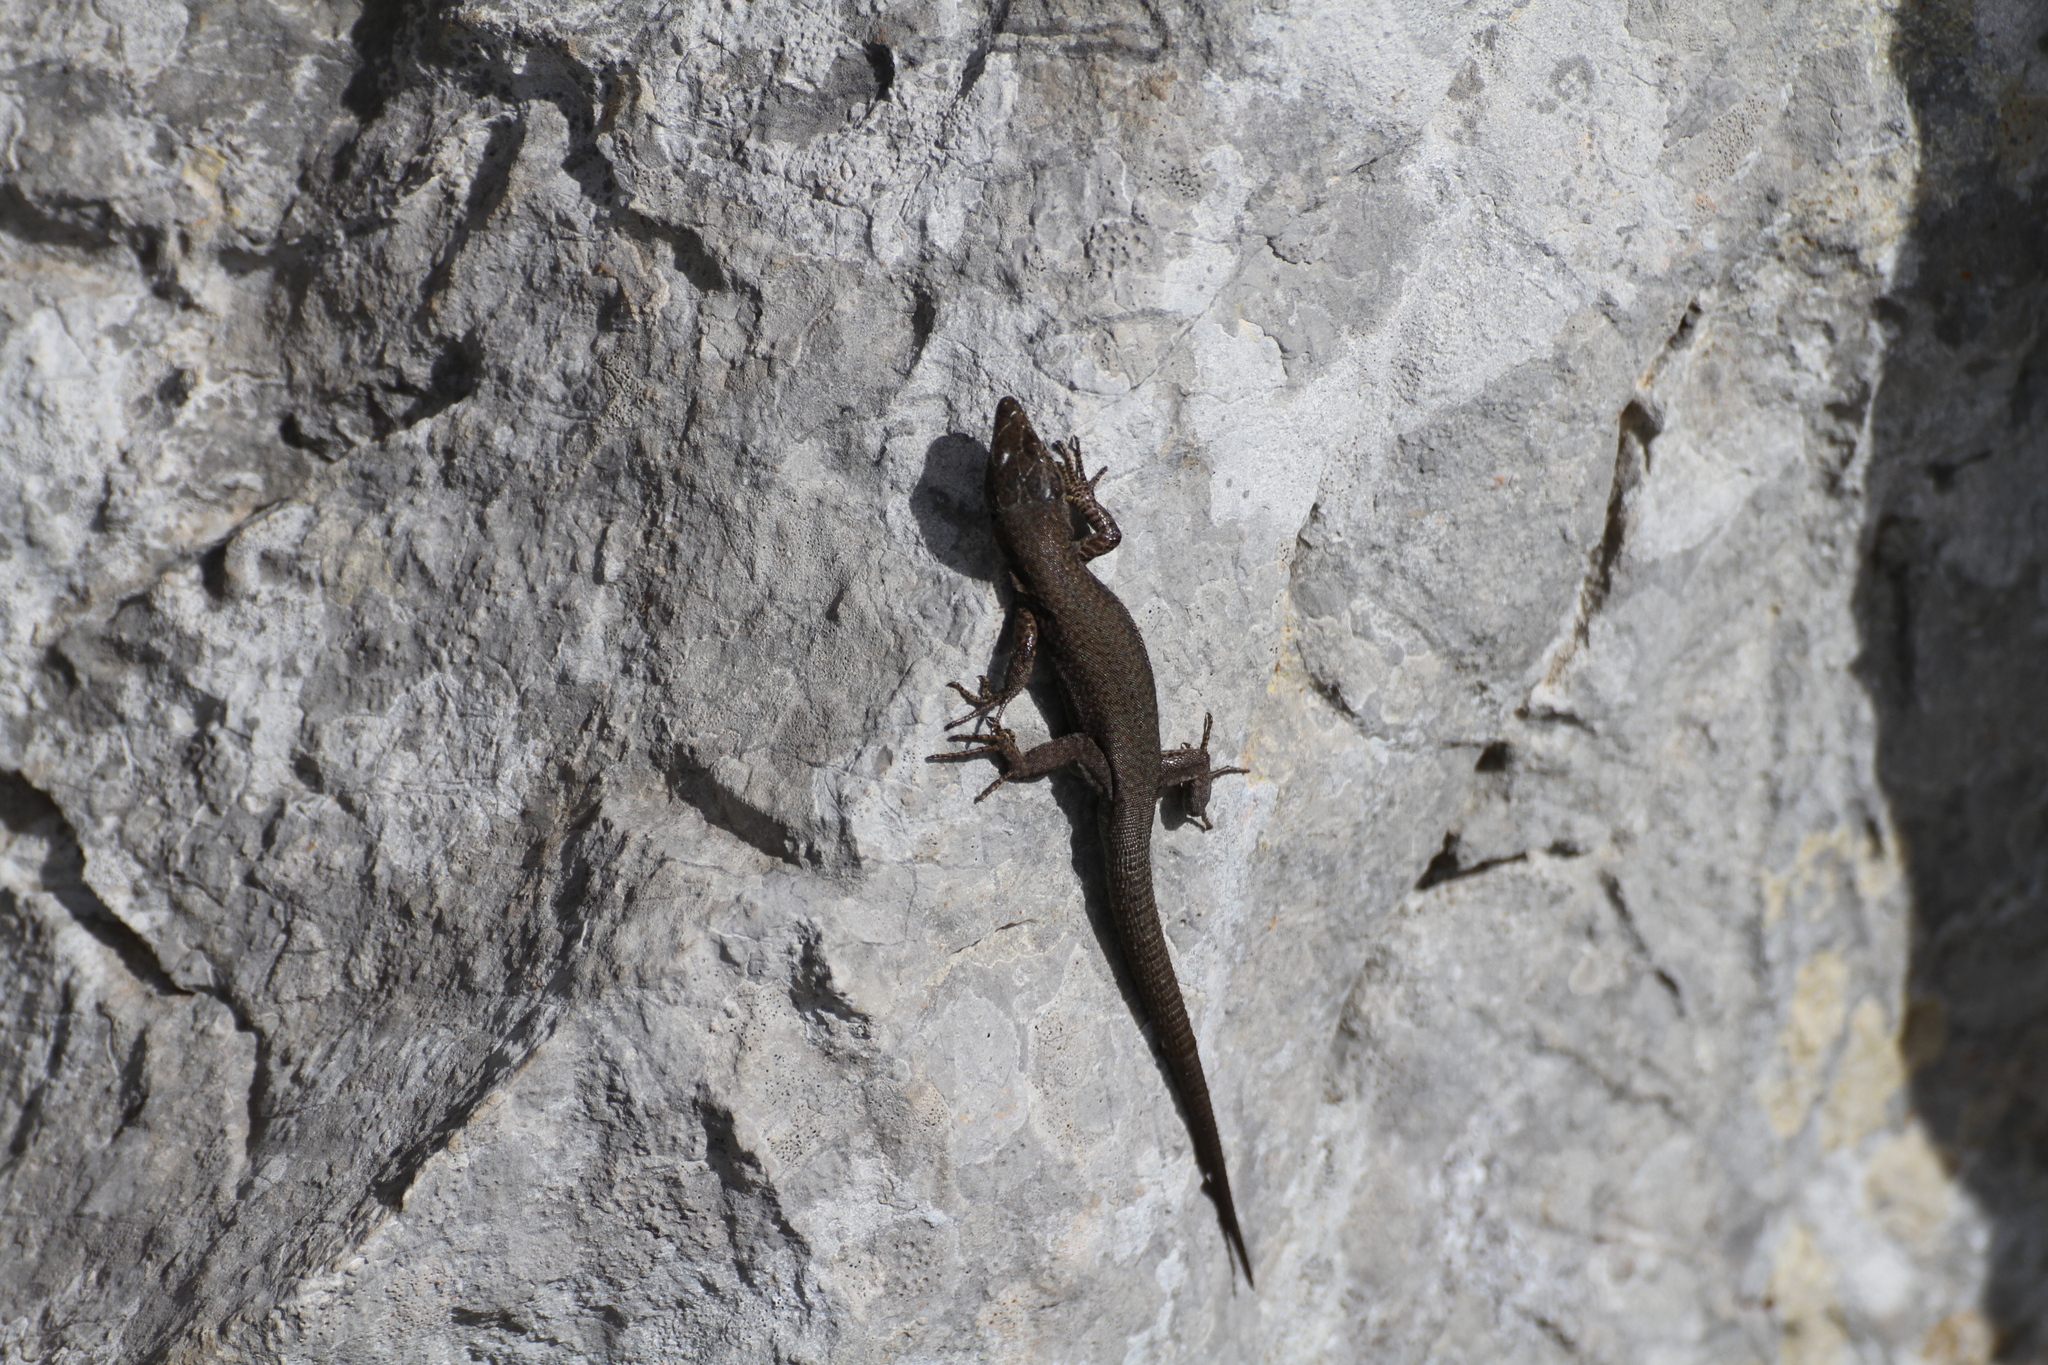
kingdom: Animalia
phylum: Chordata
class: Squamata
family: Lacertidae
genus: Podarcis
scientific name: Podarcis liolepis
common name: Catalonian wall lizard
